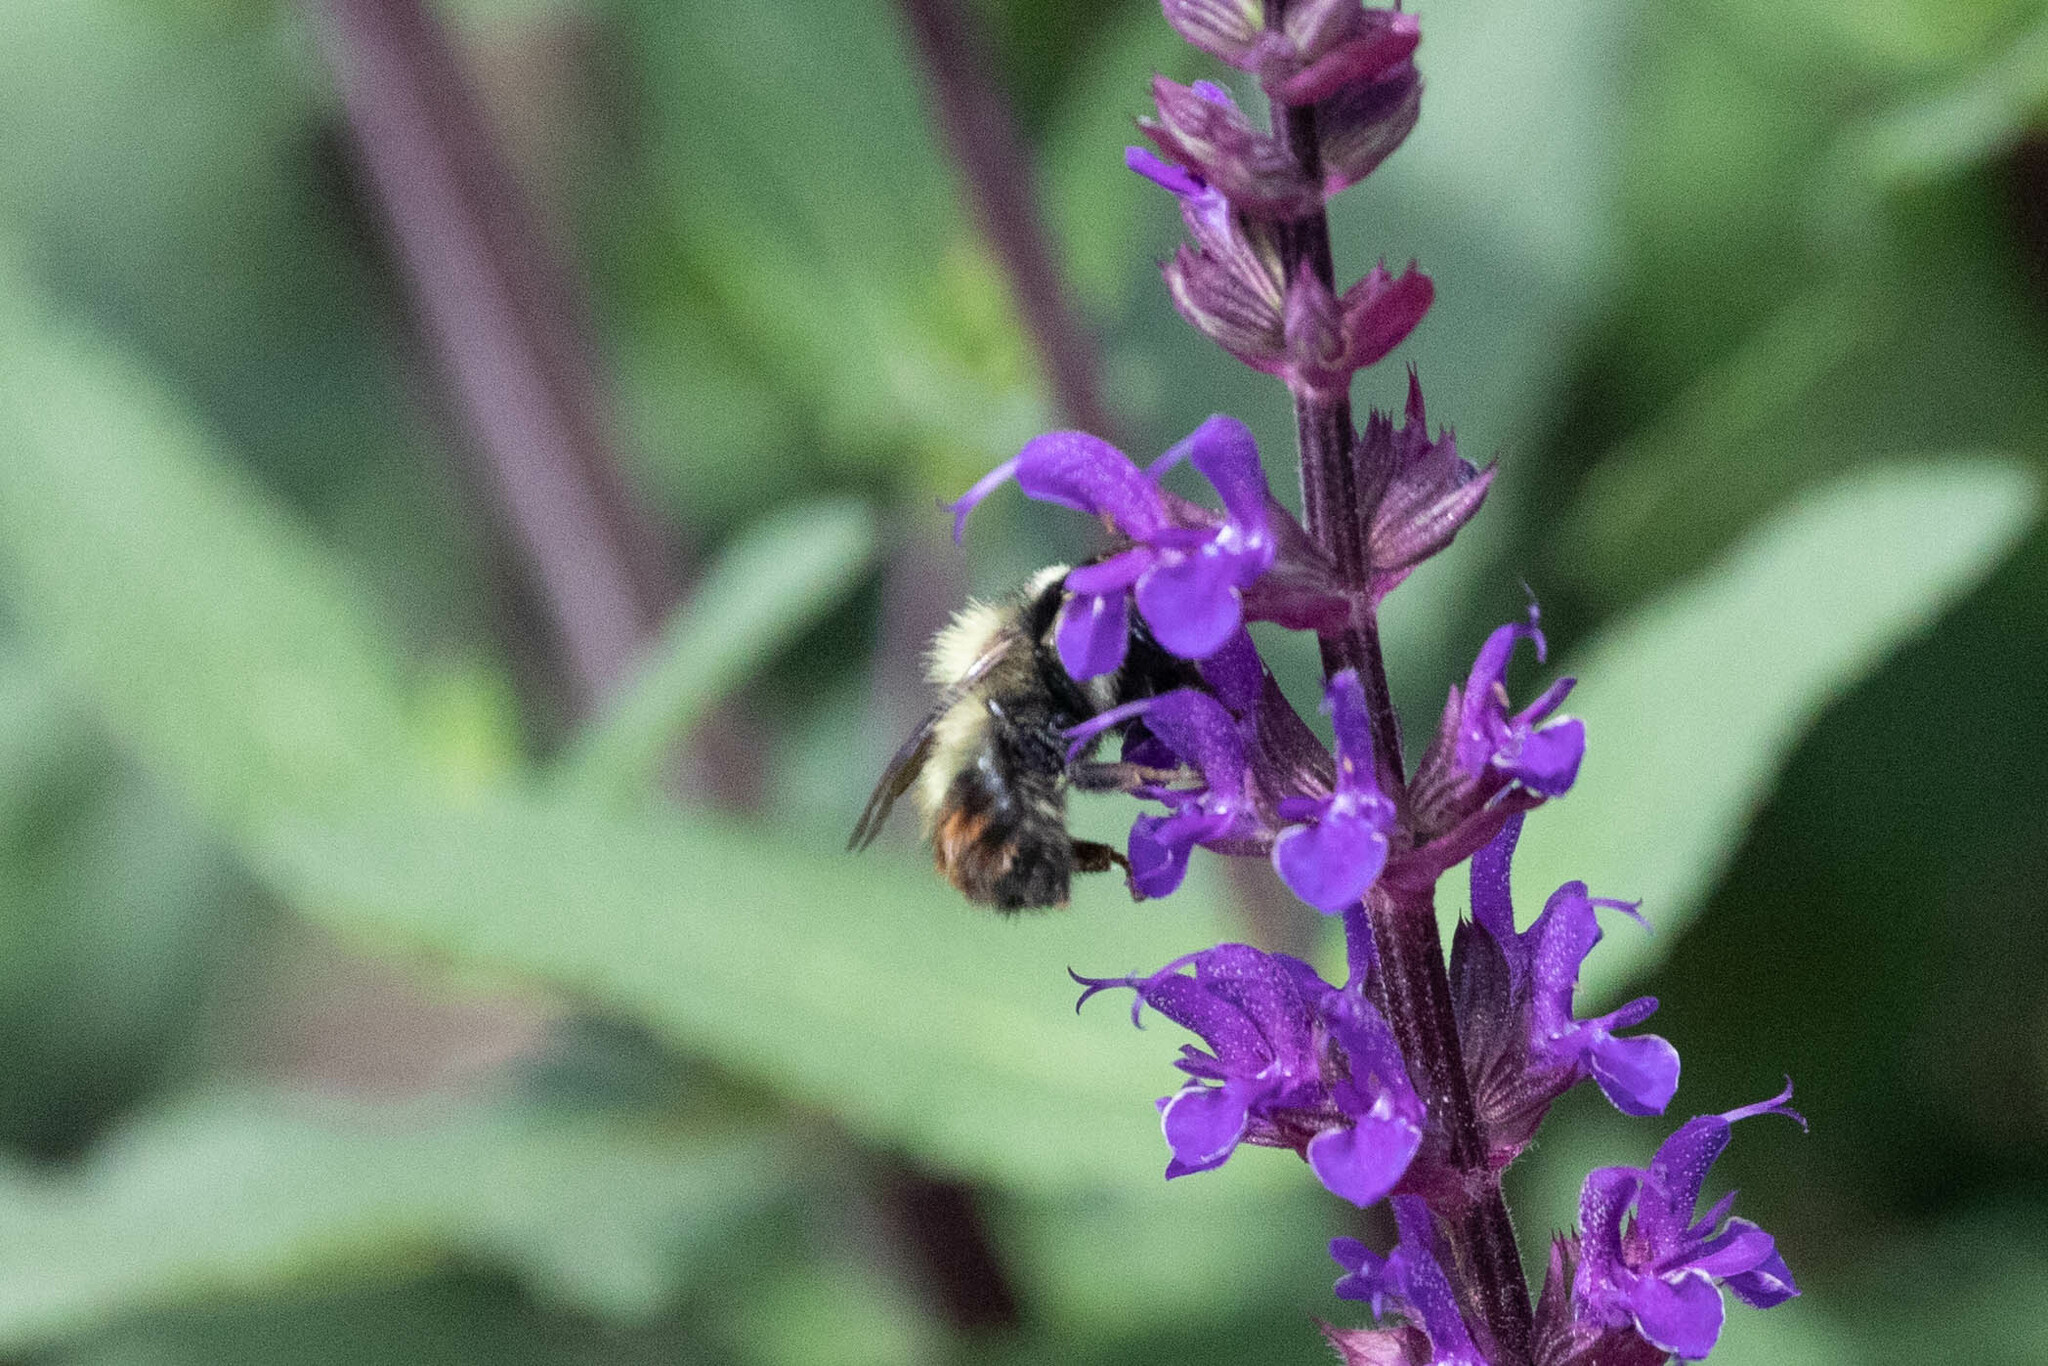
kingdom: Animalia
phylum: Arthropoda
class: Insecta
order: Hymenoptera
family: Apidae
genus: Bombus
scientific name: Bombus rufocinctus
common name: Red-belted bumble bee
